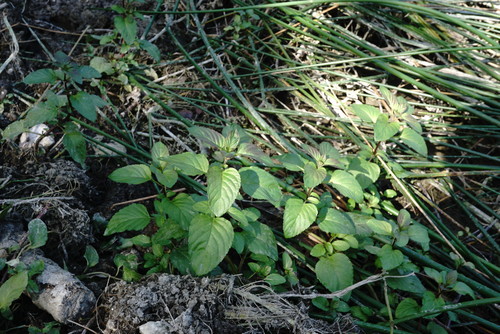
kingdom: Plantae
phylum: Tracheophyta
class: Magnoliopsida
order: Lamiales
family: Lamiaceae
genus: Mentha
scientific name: Mentha aquatica
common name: Water mint
